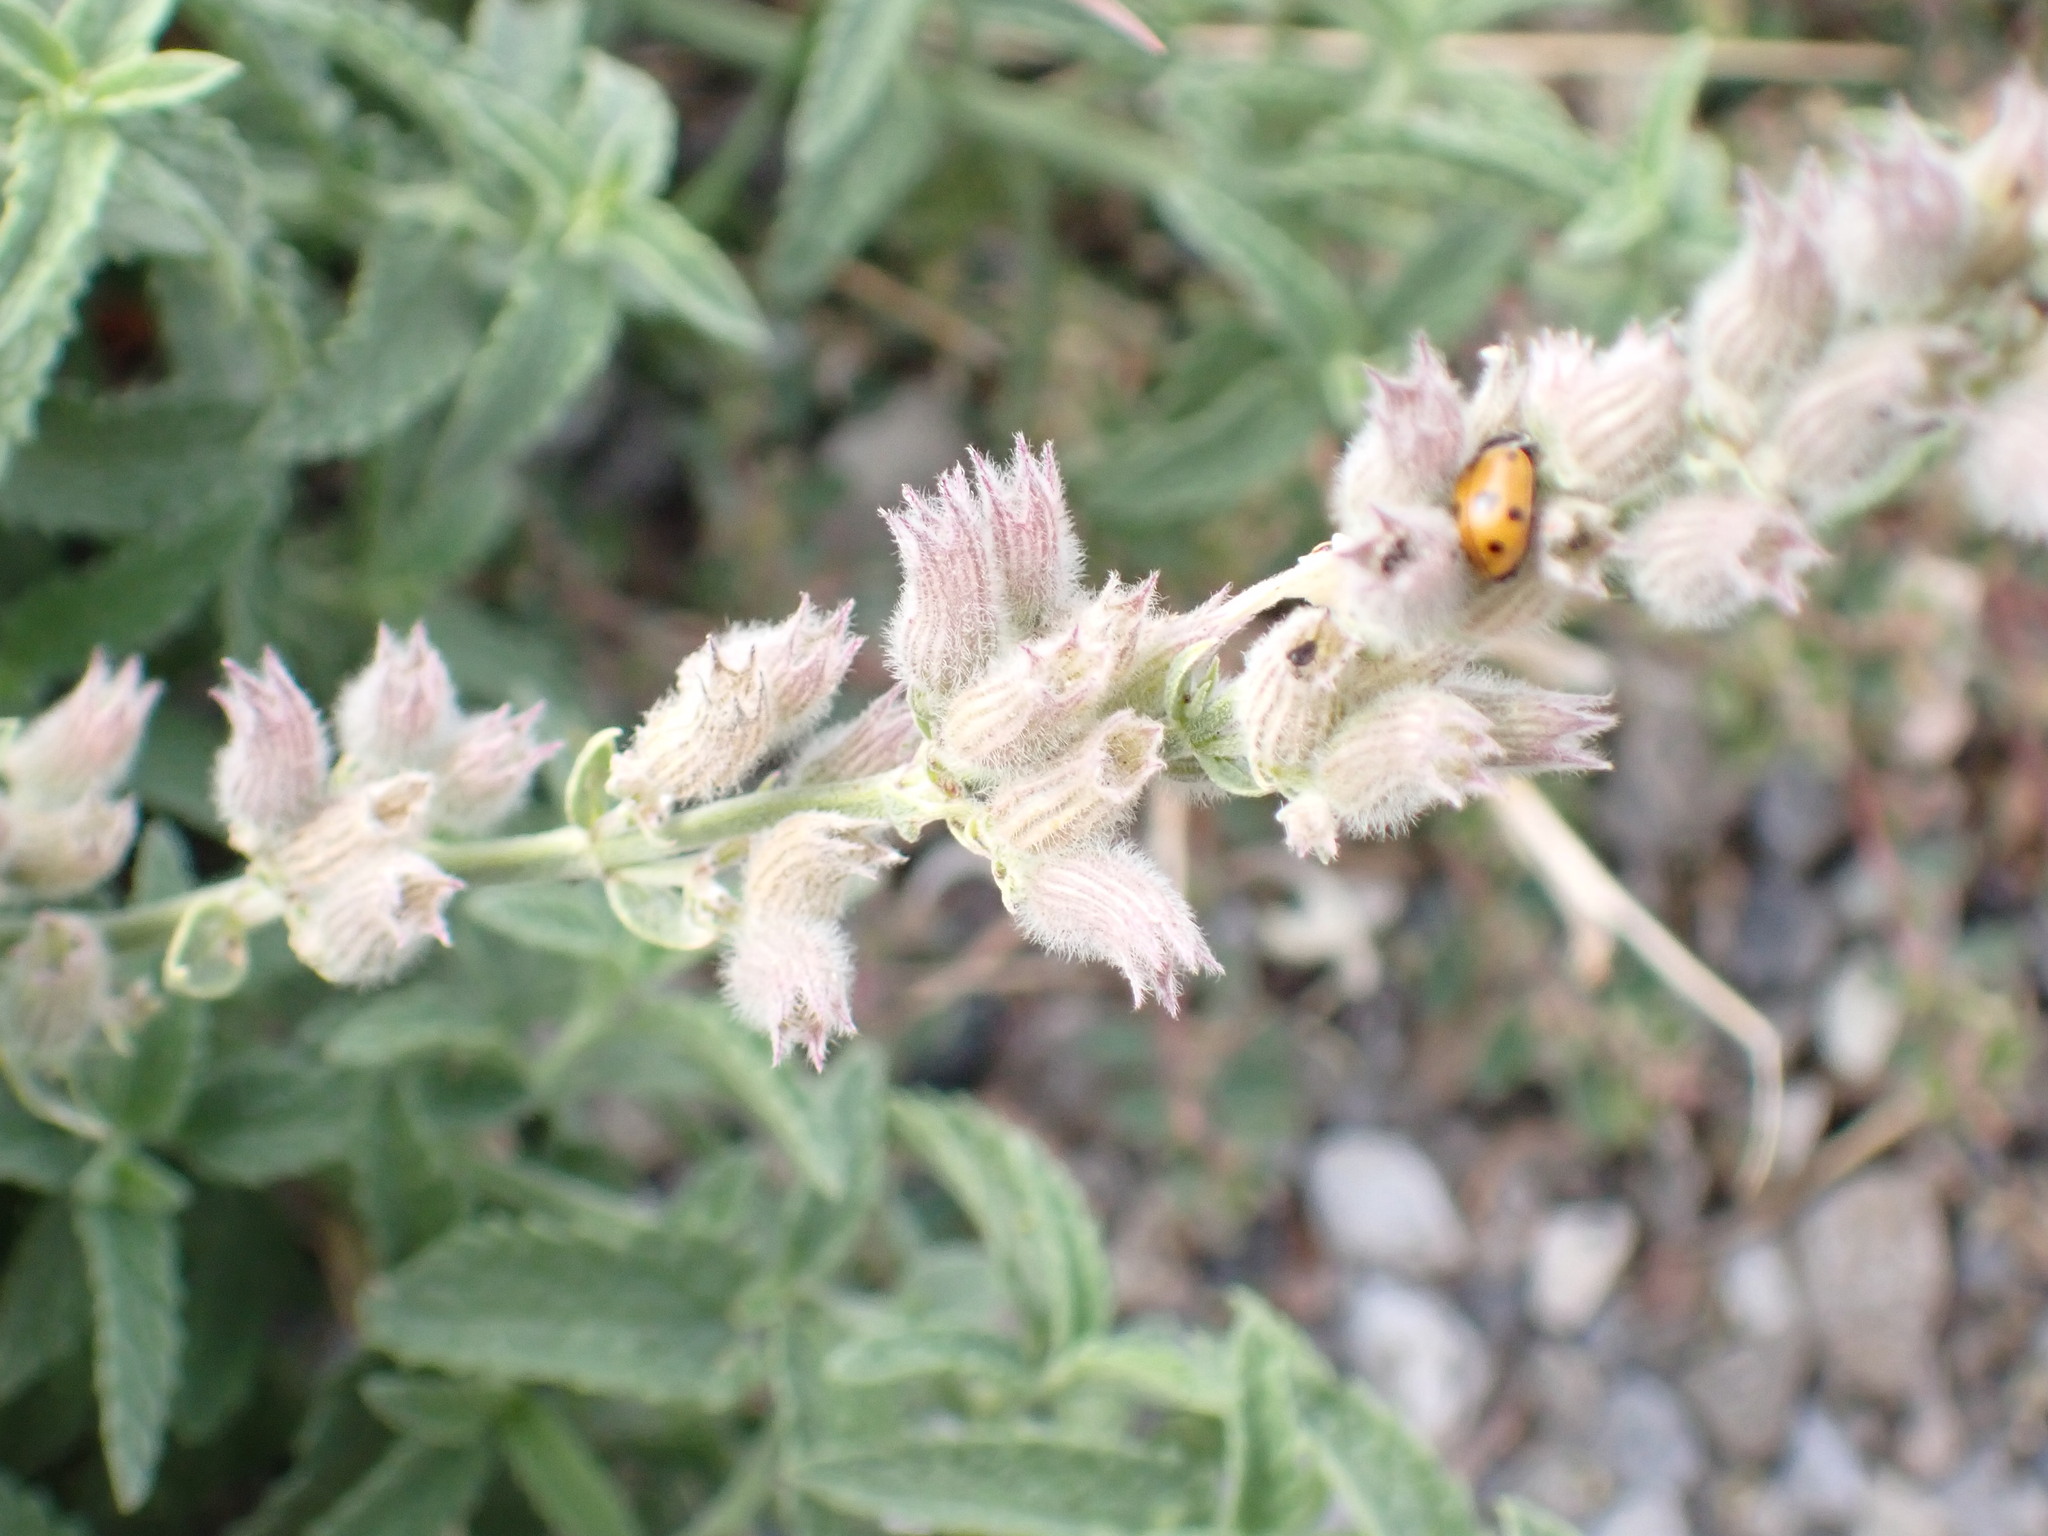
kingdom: Plantae
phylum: Tracheophyta
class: Magnoliopsida
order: Lamiales
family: Lamiaceae
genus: Nepeta
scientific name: Nepeta nepetella
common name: Lesser catmint
